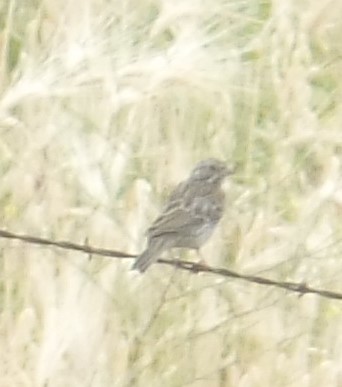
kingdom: Animalia
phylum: Chordata
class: Aves
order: Passeriformes
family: Passerellidae
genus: Pooecetes
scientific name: Pooecetes gramineus
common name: Vesper sparrow
